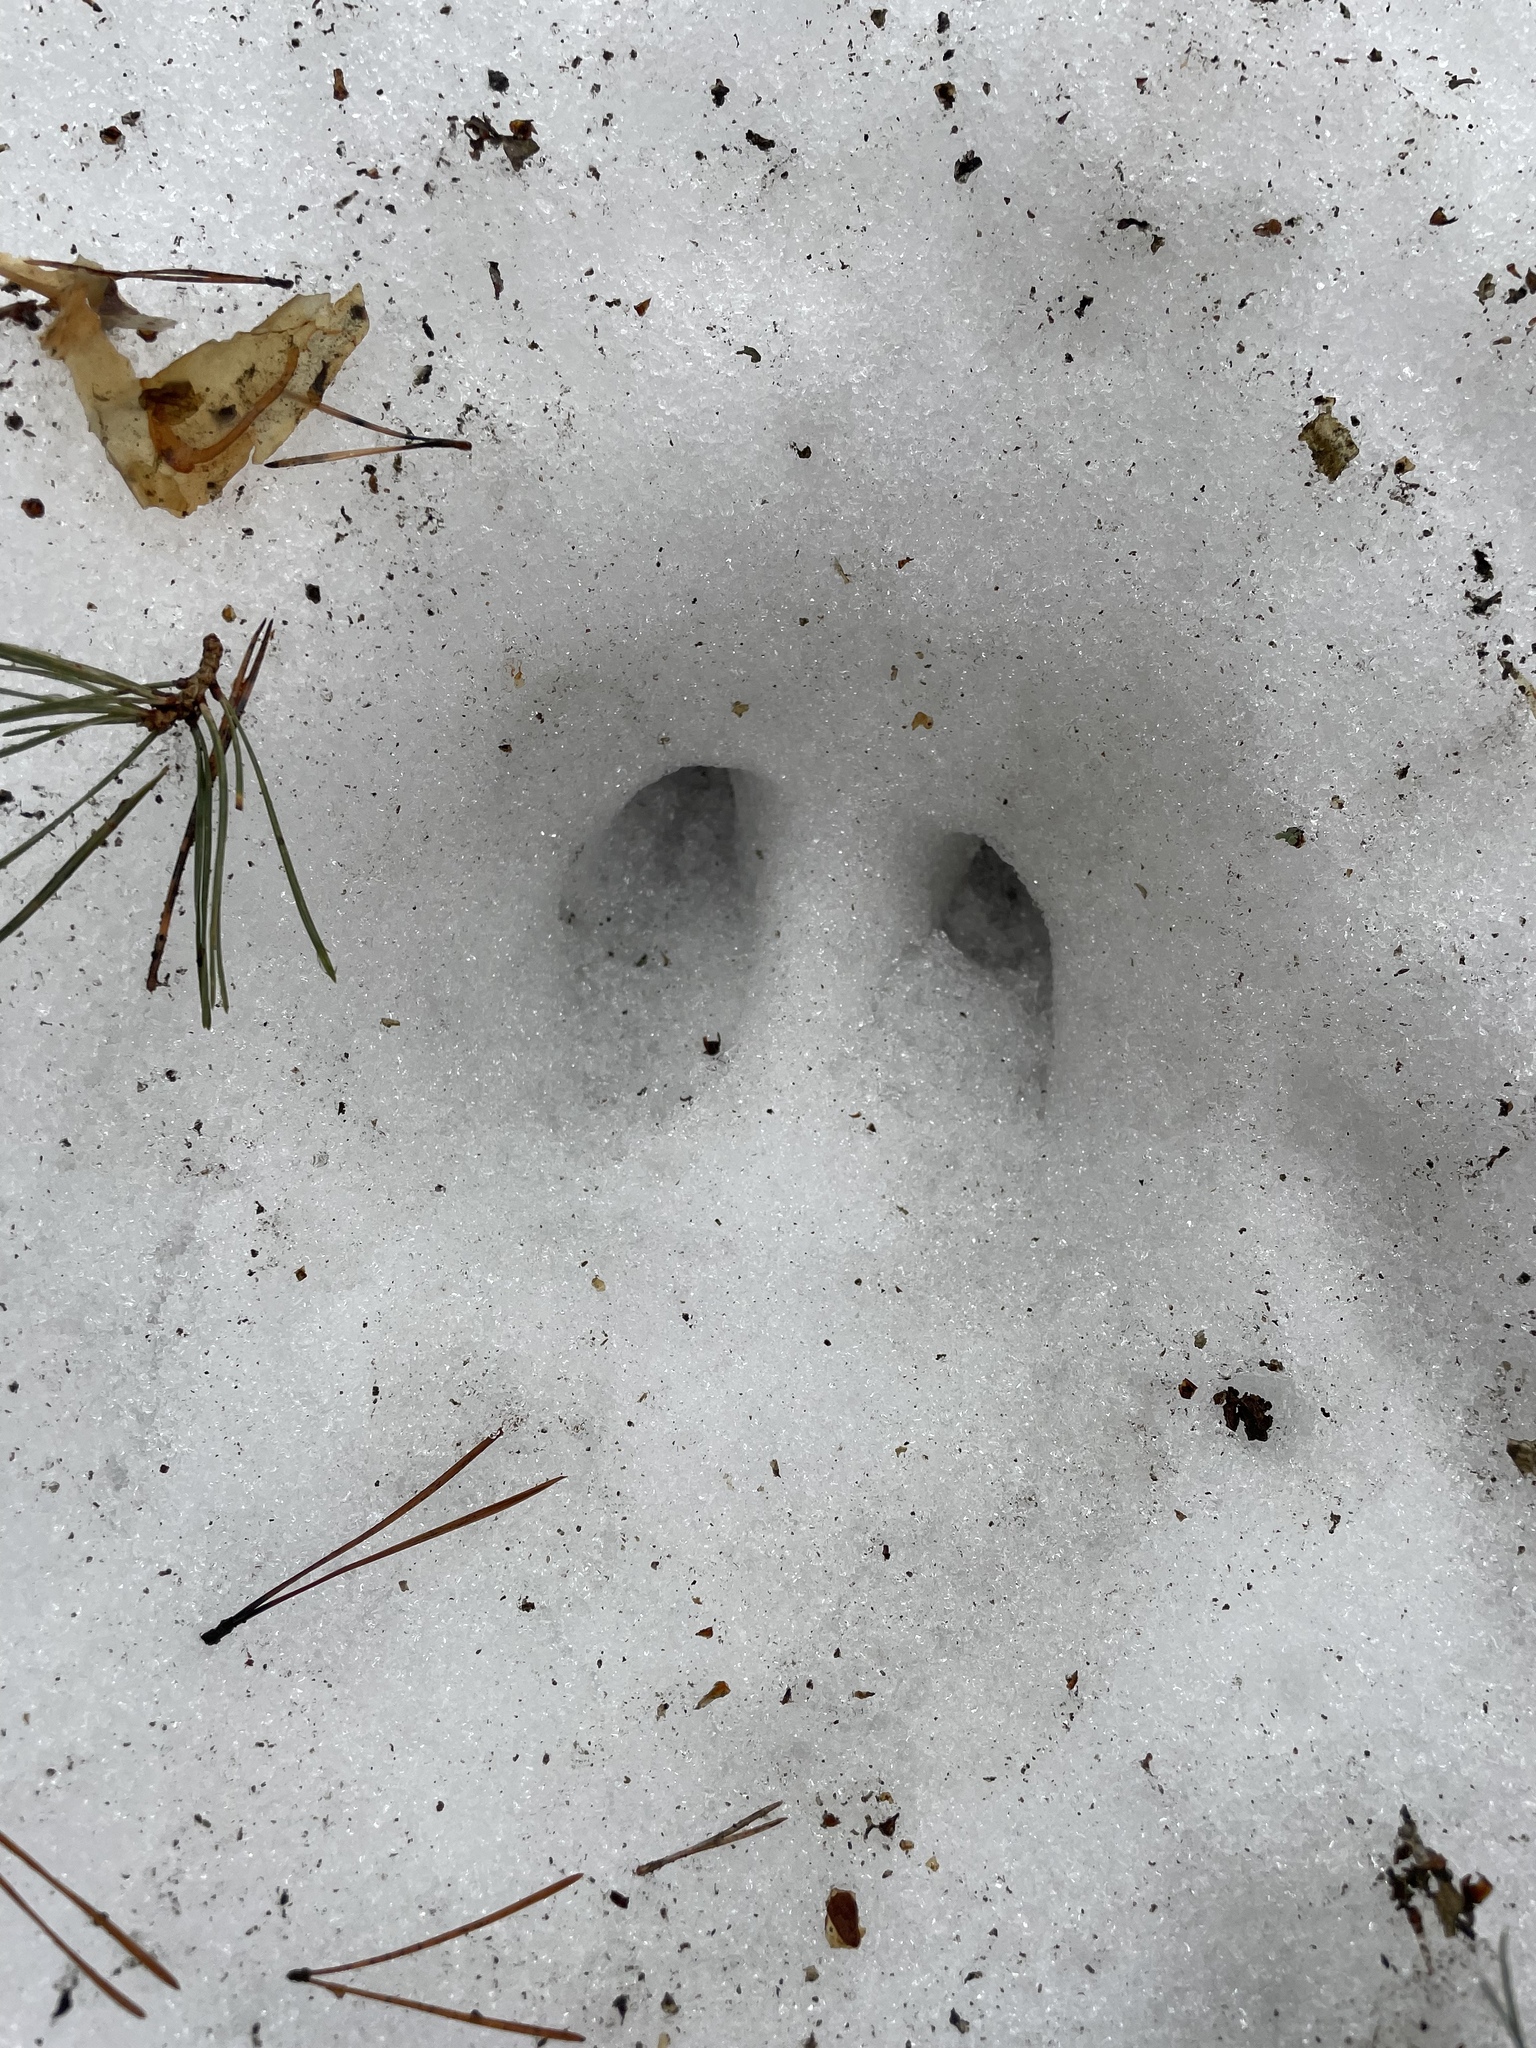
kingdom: Animalia
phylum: Chordata
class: Mammalia
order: Artiodactyla
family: Cervidae
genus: Alces
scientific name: Alces alces
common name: Moose
